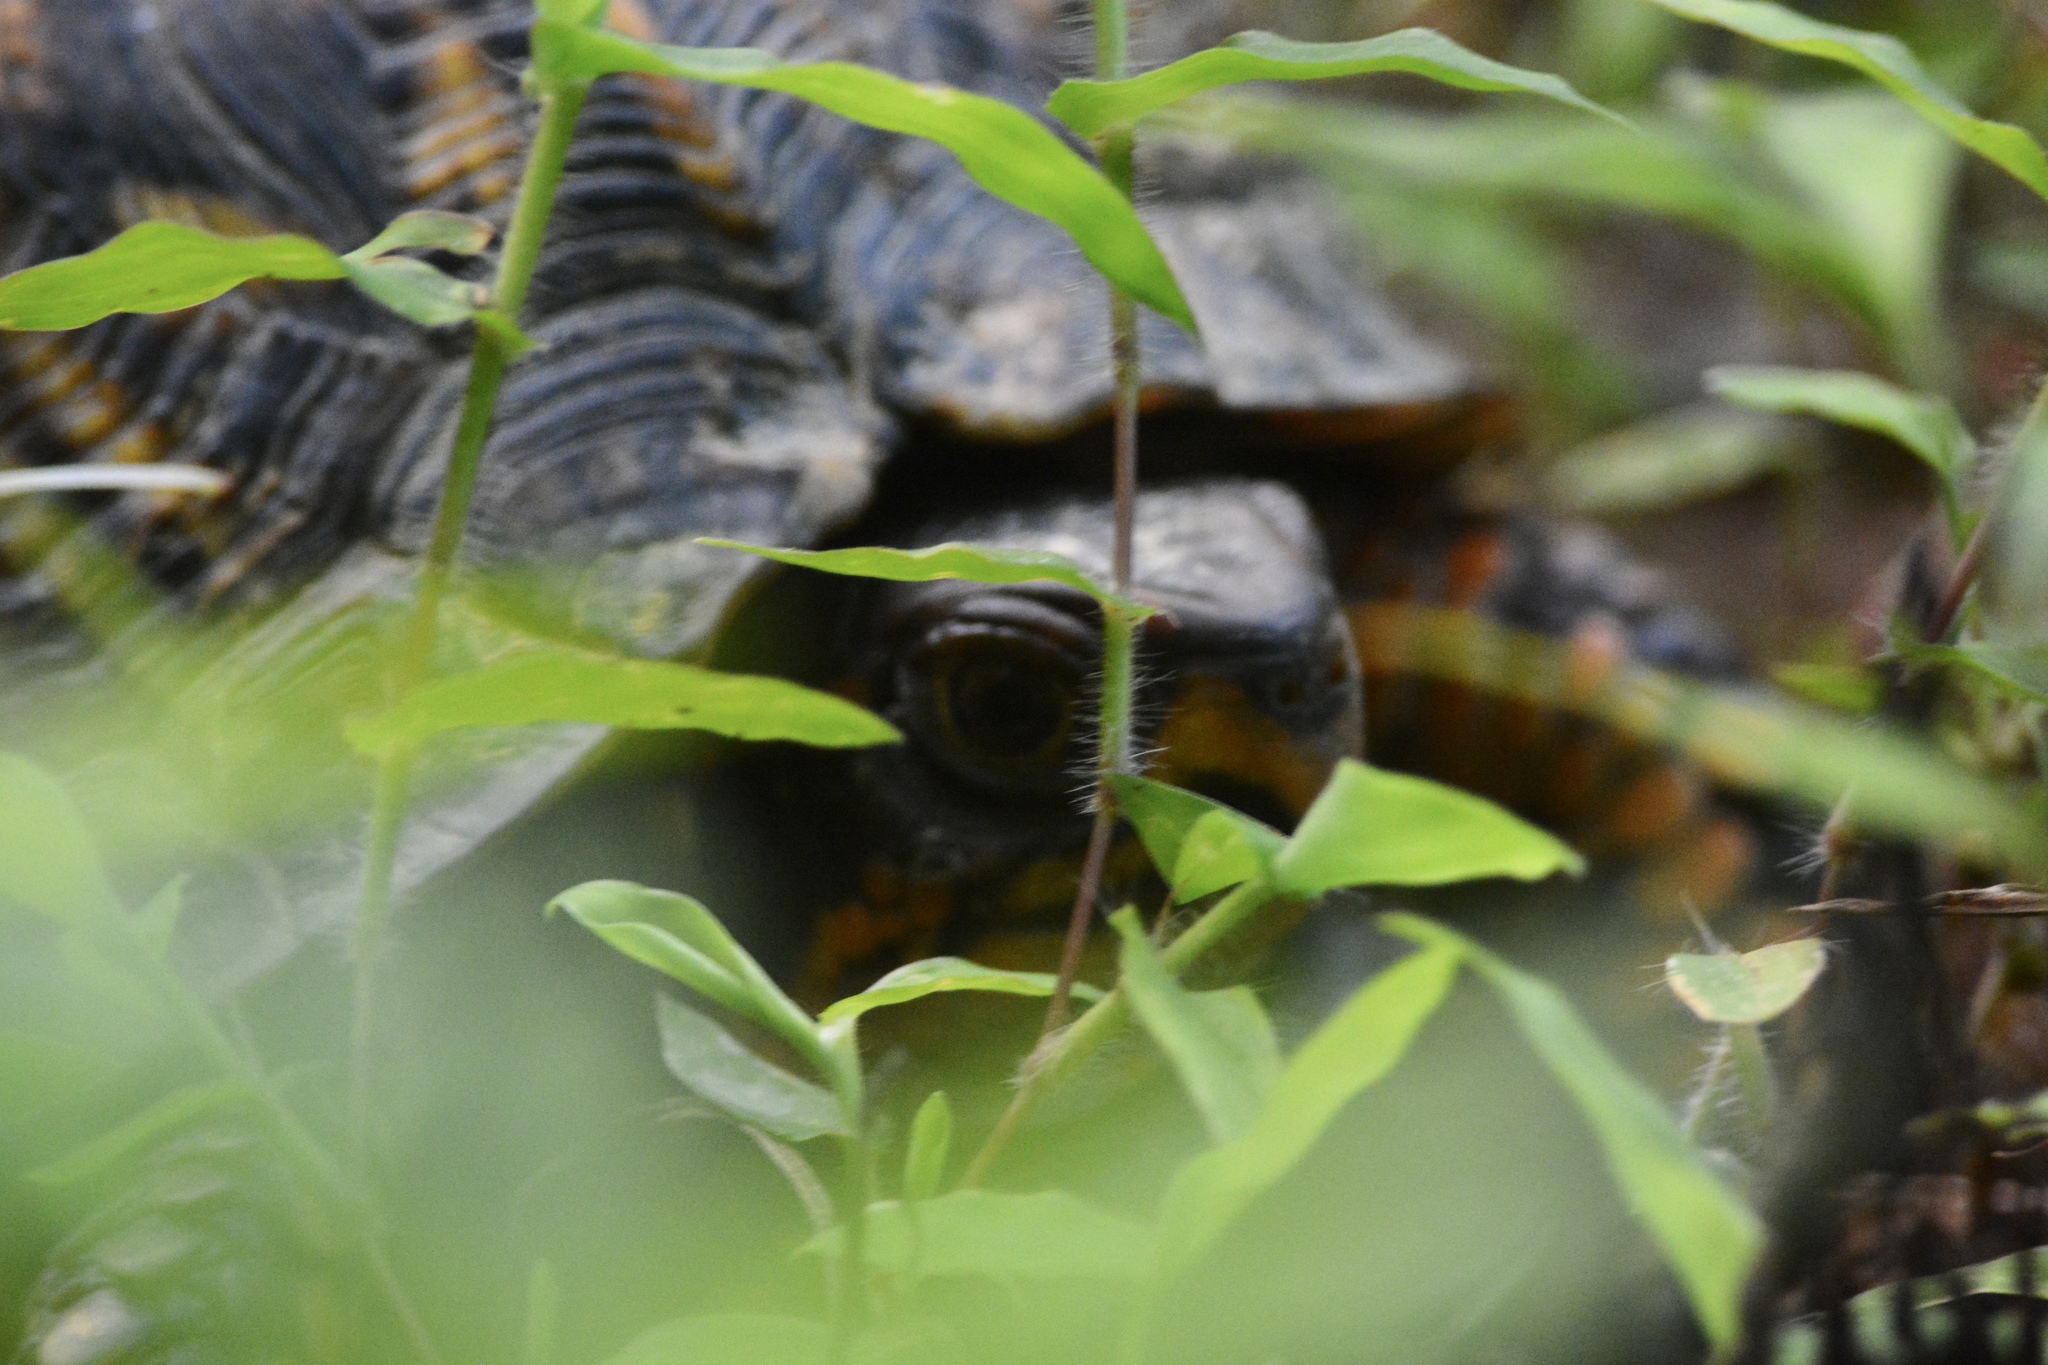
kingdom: Animalia
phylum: Chordata
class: Testudines
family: Emydidae
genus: Terrapene
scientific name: Terrapene carolina
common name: Common box turtle
